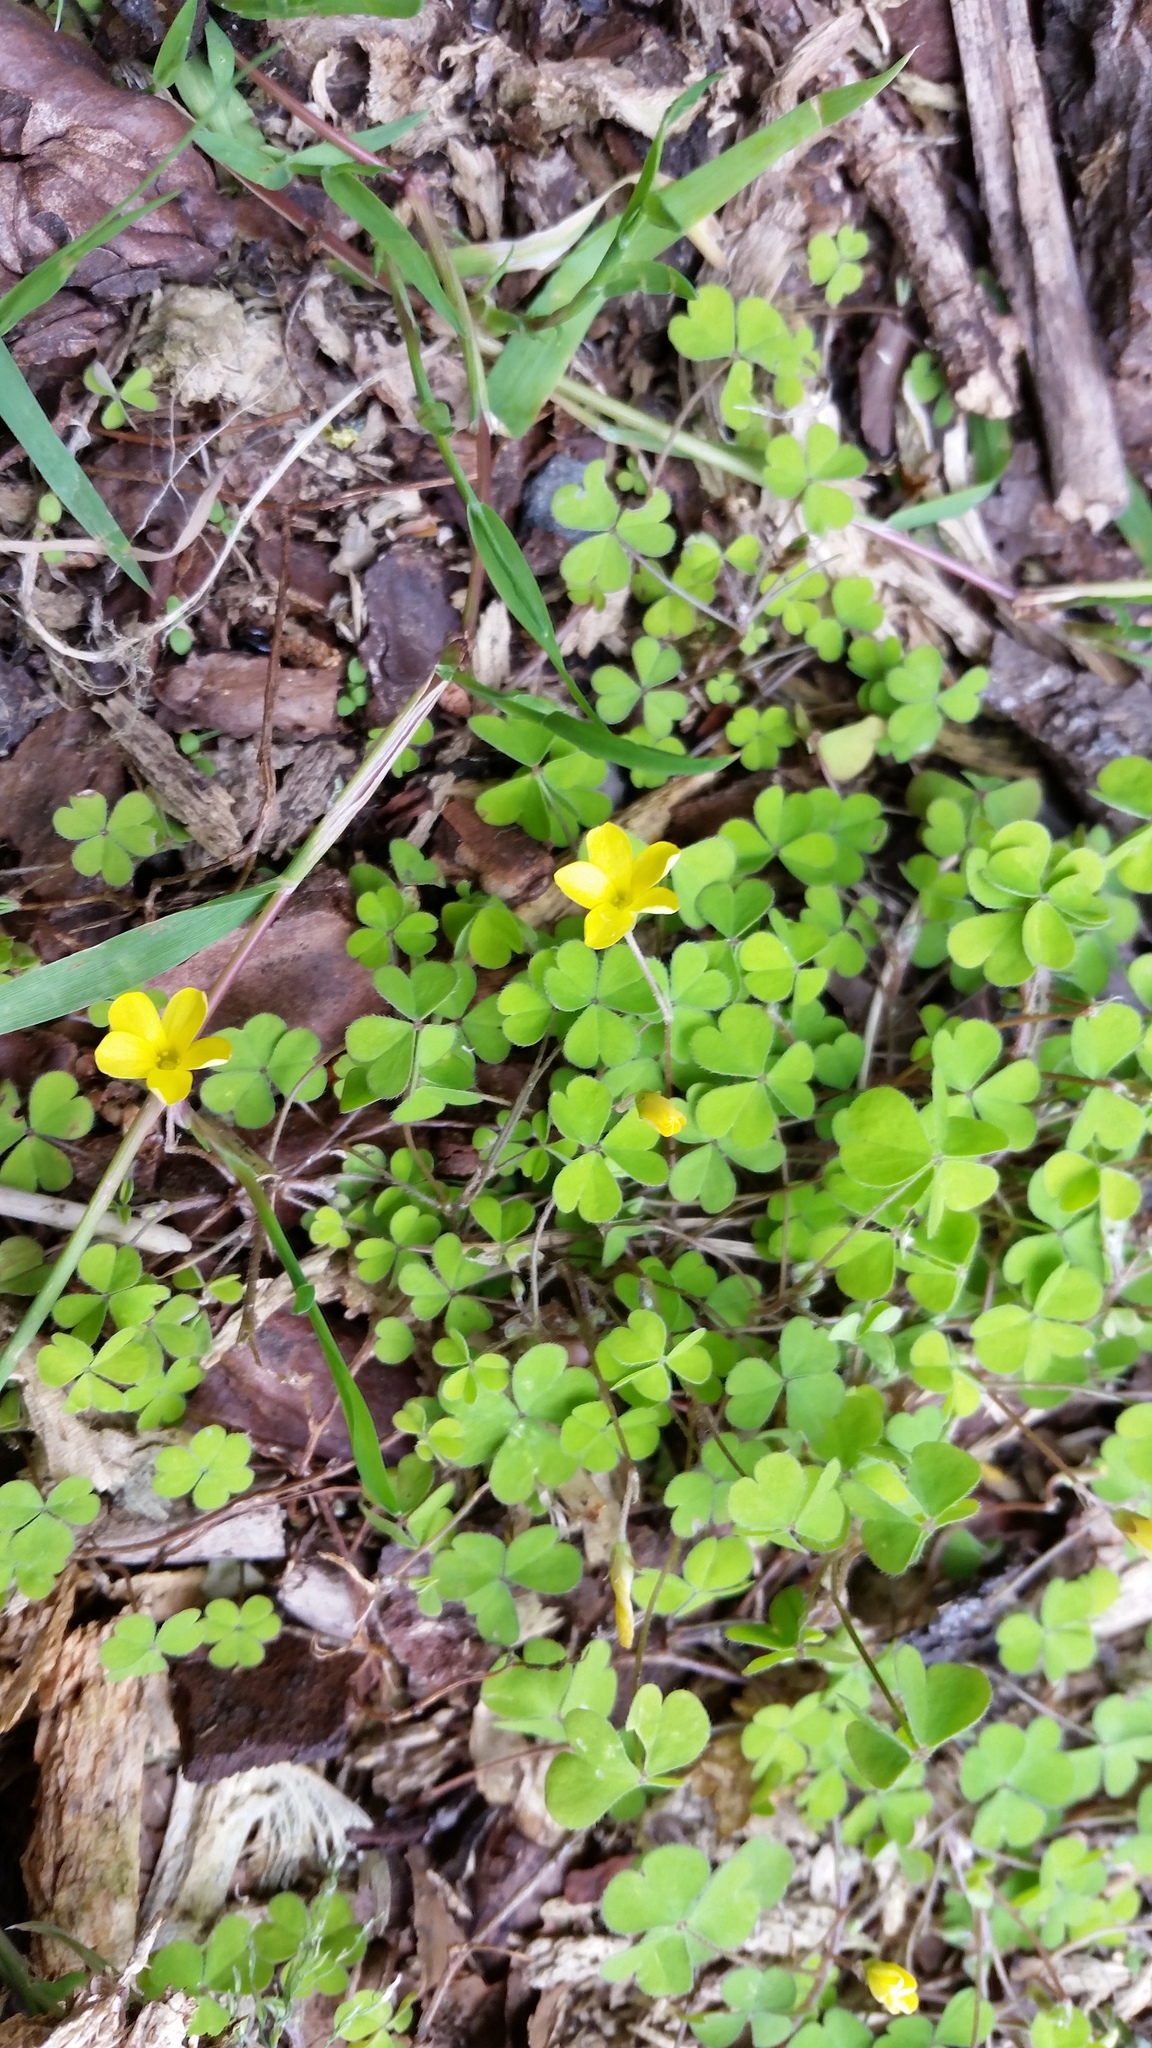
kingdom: Plantae
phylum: Tracheophyta
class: Magnoliopsida
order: Oxalidales
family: Oxalidaceae
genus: Oxalis
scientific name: Oxalis exilis
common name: Least yellow-sorrel
